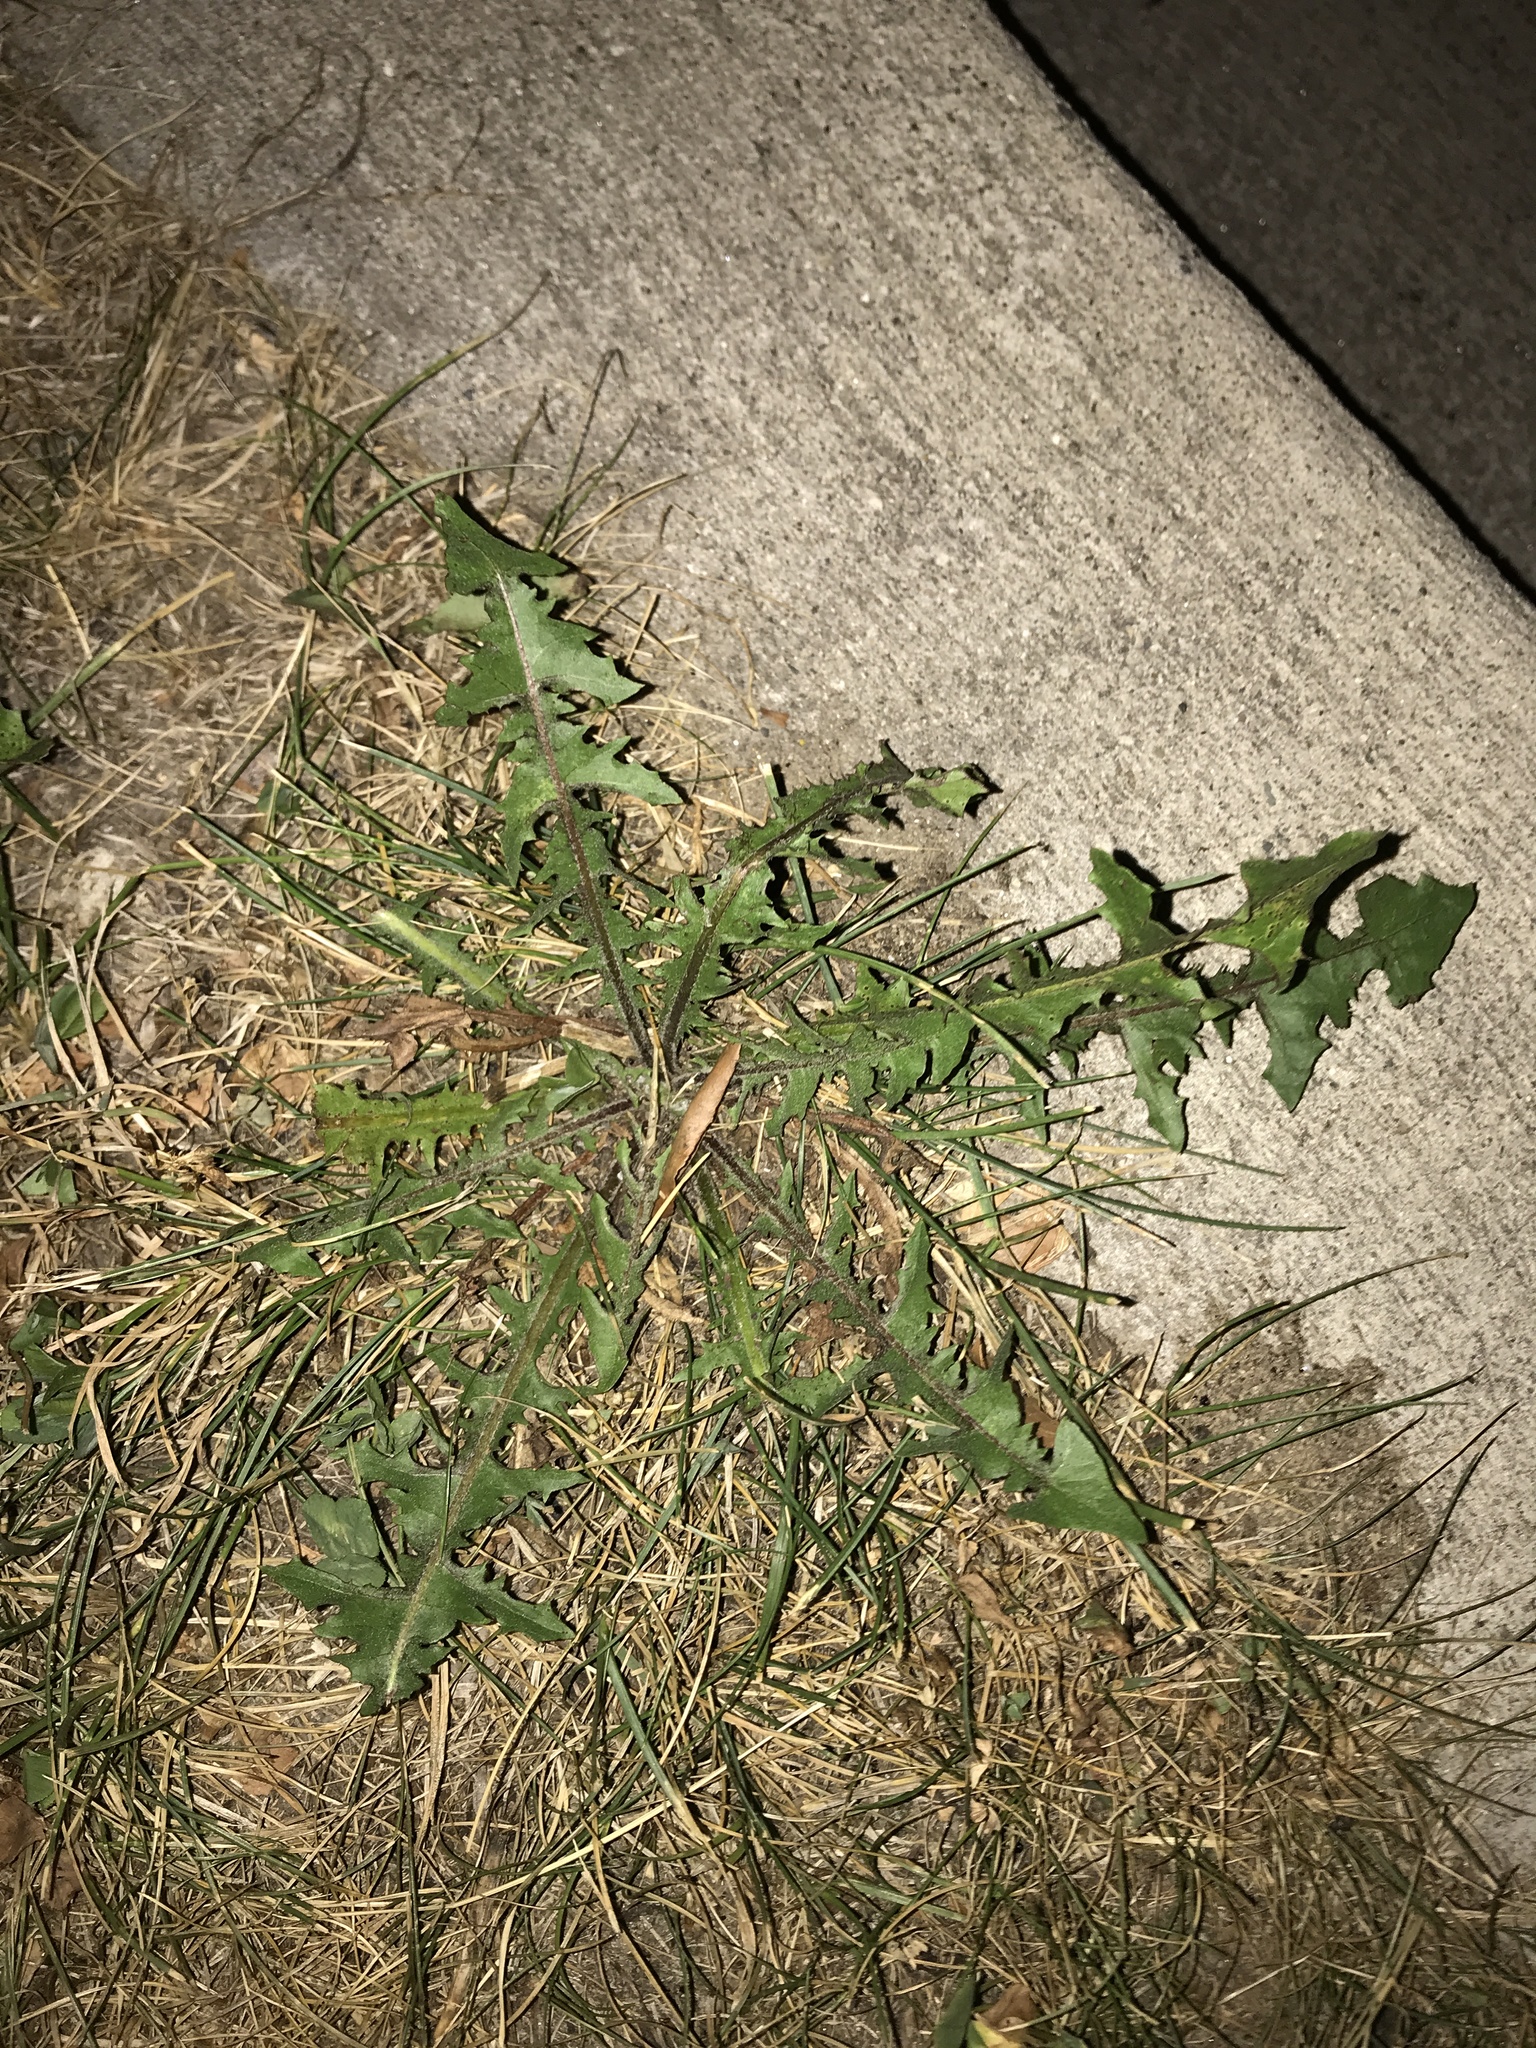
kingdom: Plantae
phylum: Tracheophyta
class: Magnoliopsida
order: Asterales
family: Asteraceae
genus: Taraxacum
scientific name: Taraxacum officinale
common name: Common dandelion
